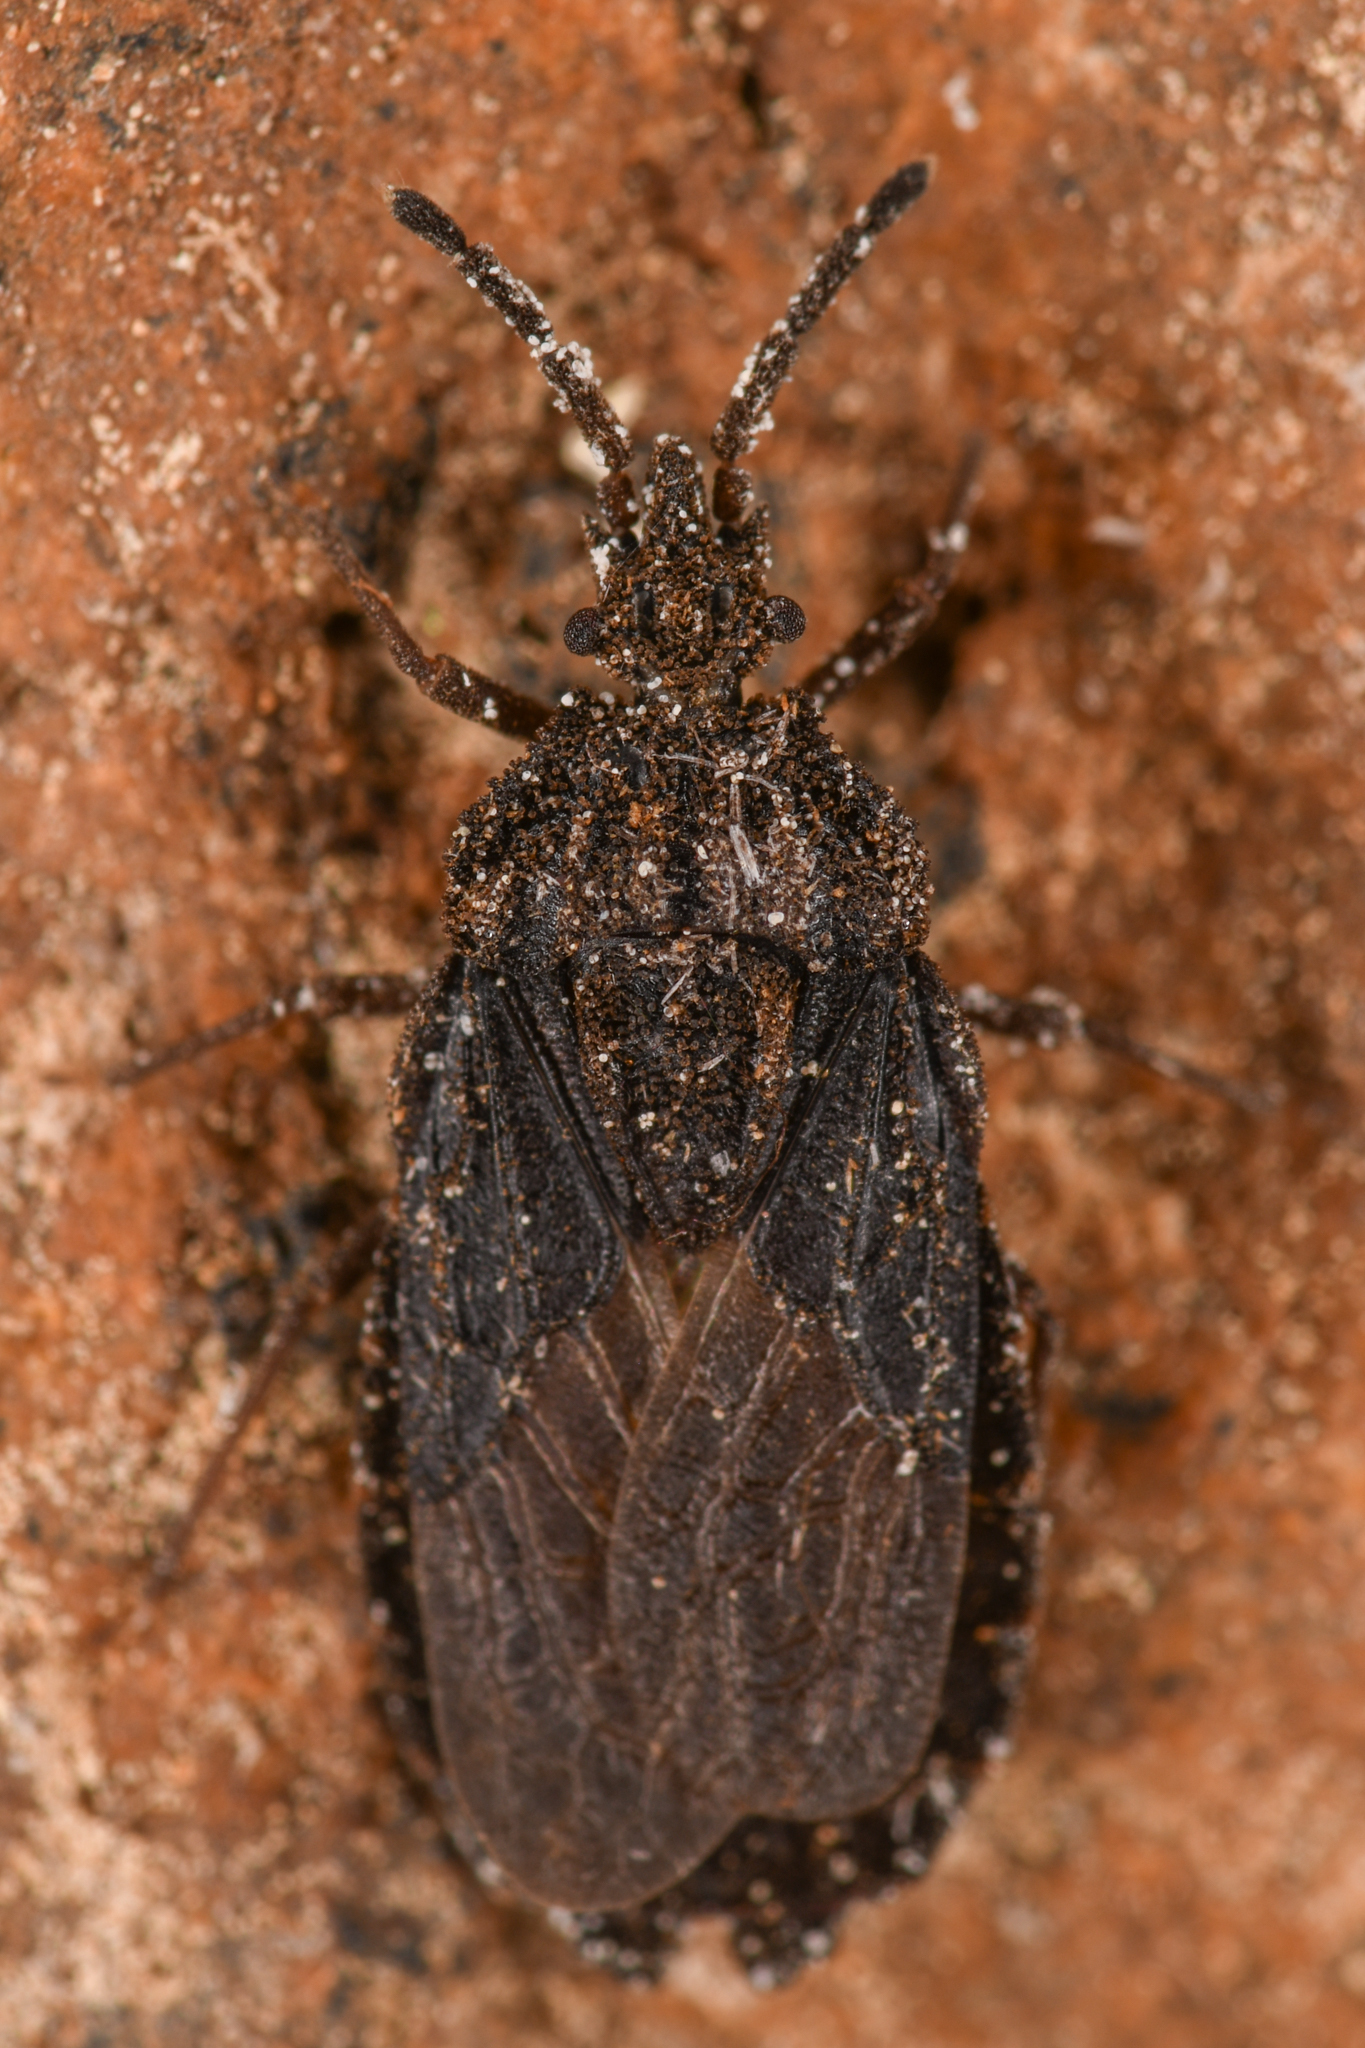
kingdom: Animalia
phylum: Arthropoda
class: Insecta
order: Hemiptera
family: Aradidae
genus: Aradus
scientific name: Aradus heidemanni
